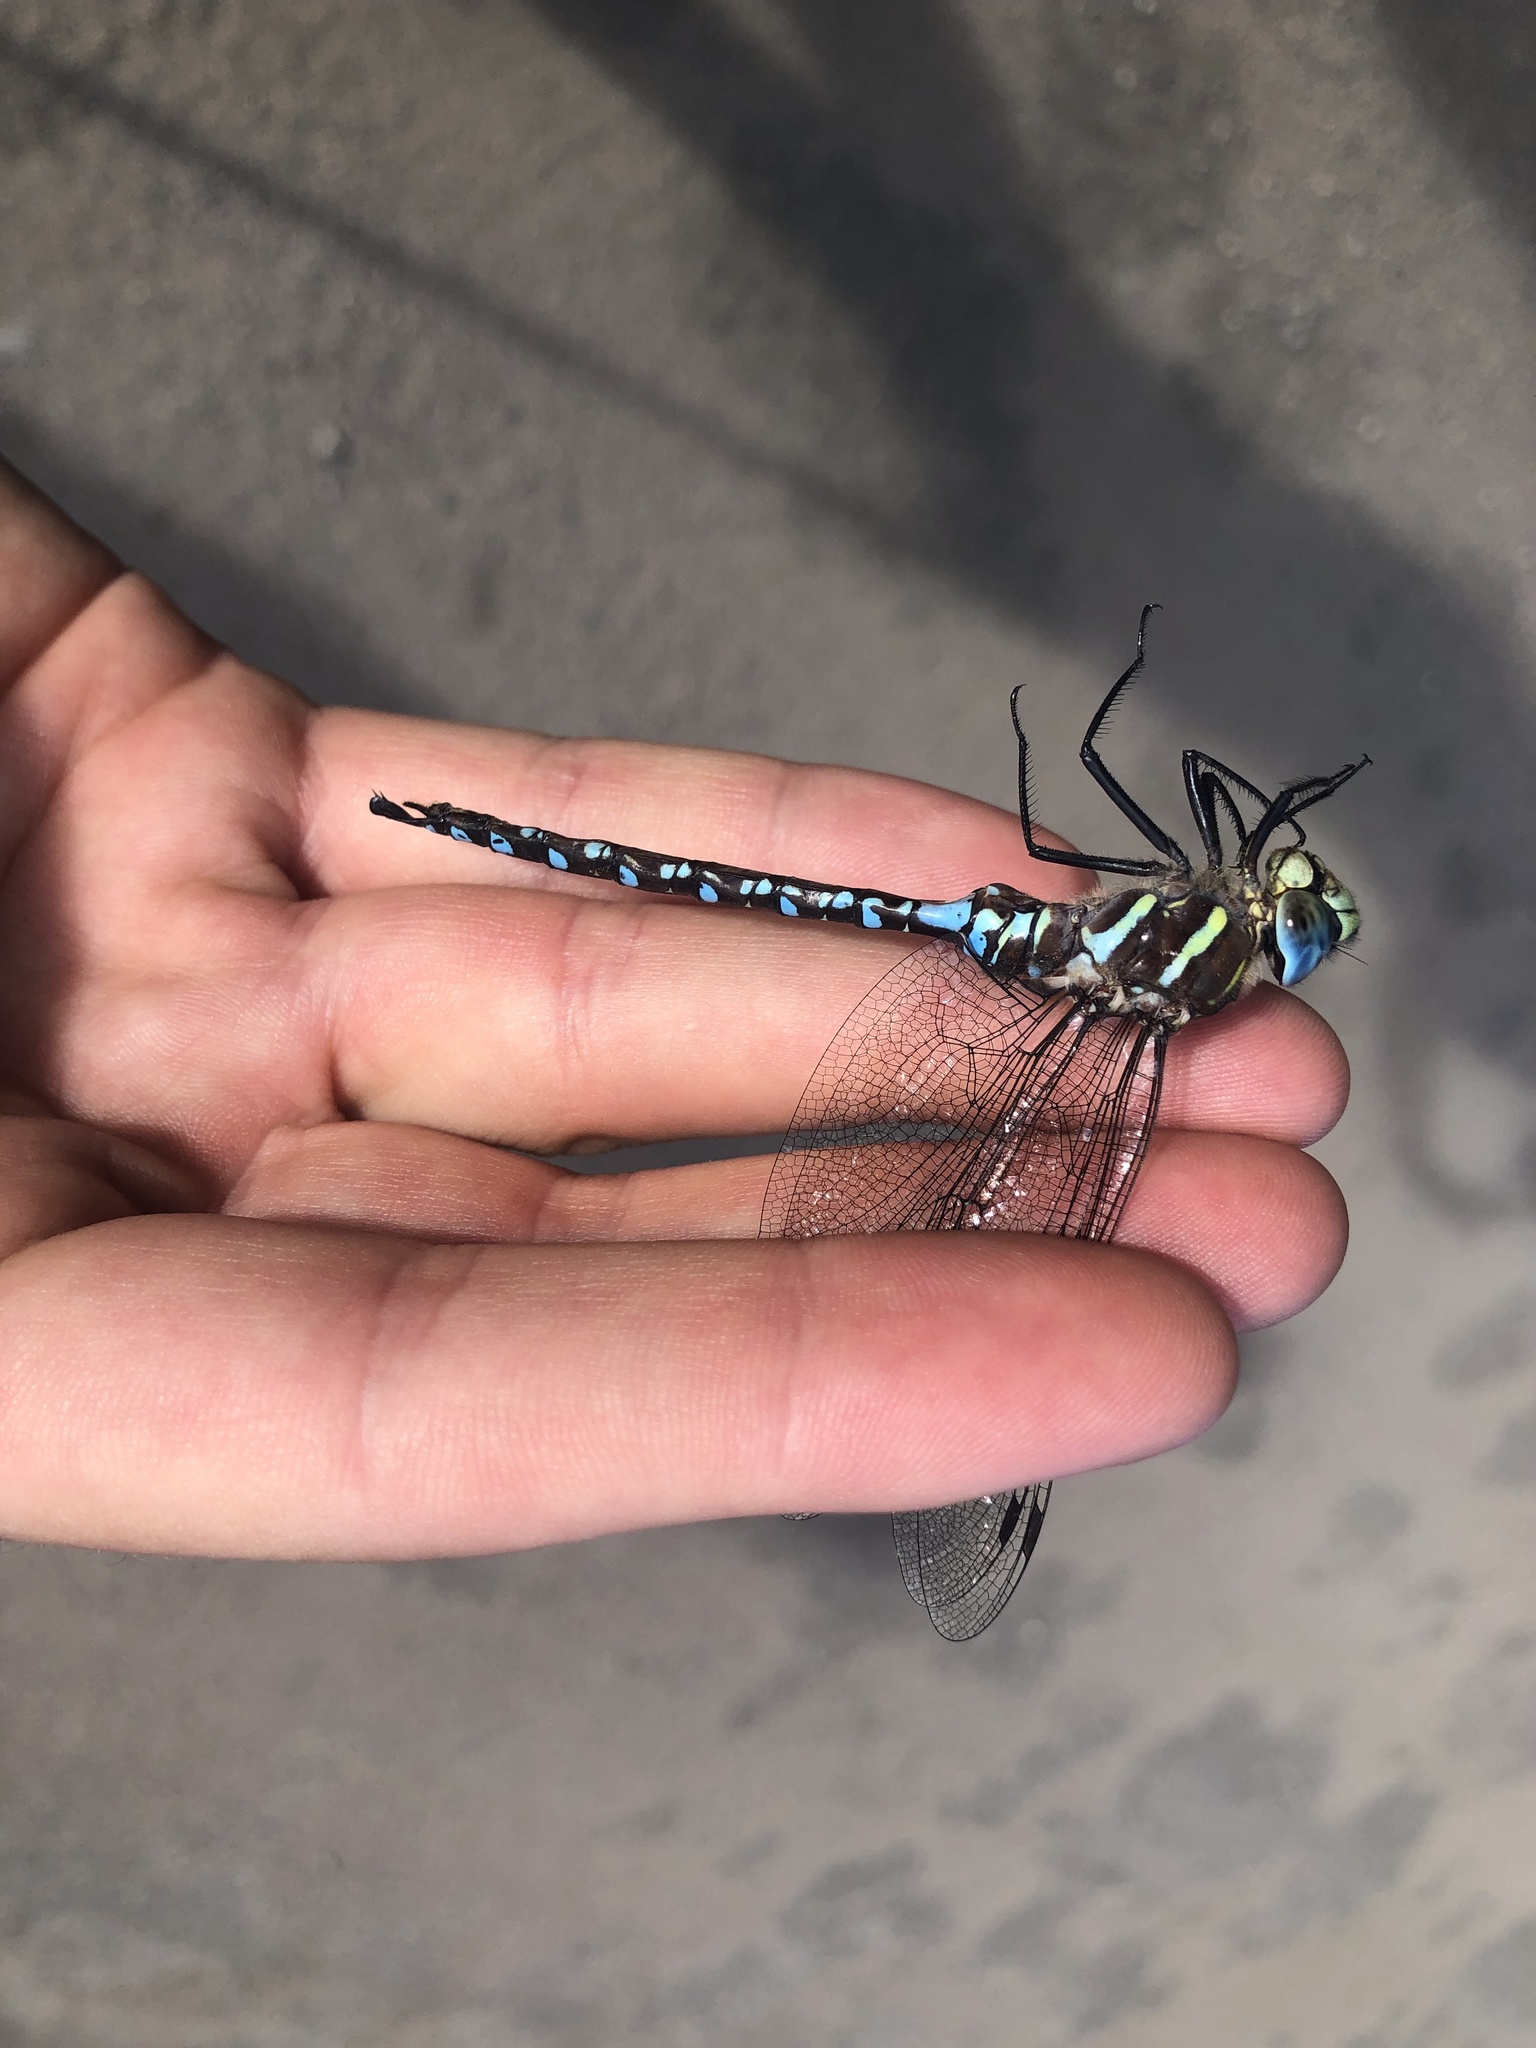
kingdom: Animalia
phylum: Arthropoda
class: Insecta
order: Odonata
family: Aeshnidae
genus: Aeshna
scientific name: Aeshna palmata
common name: Paddle-tailed darner
